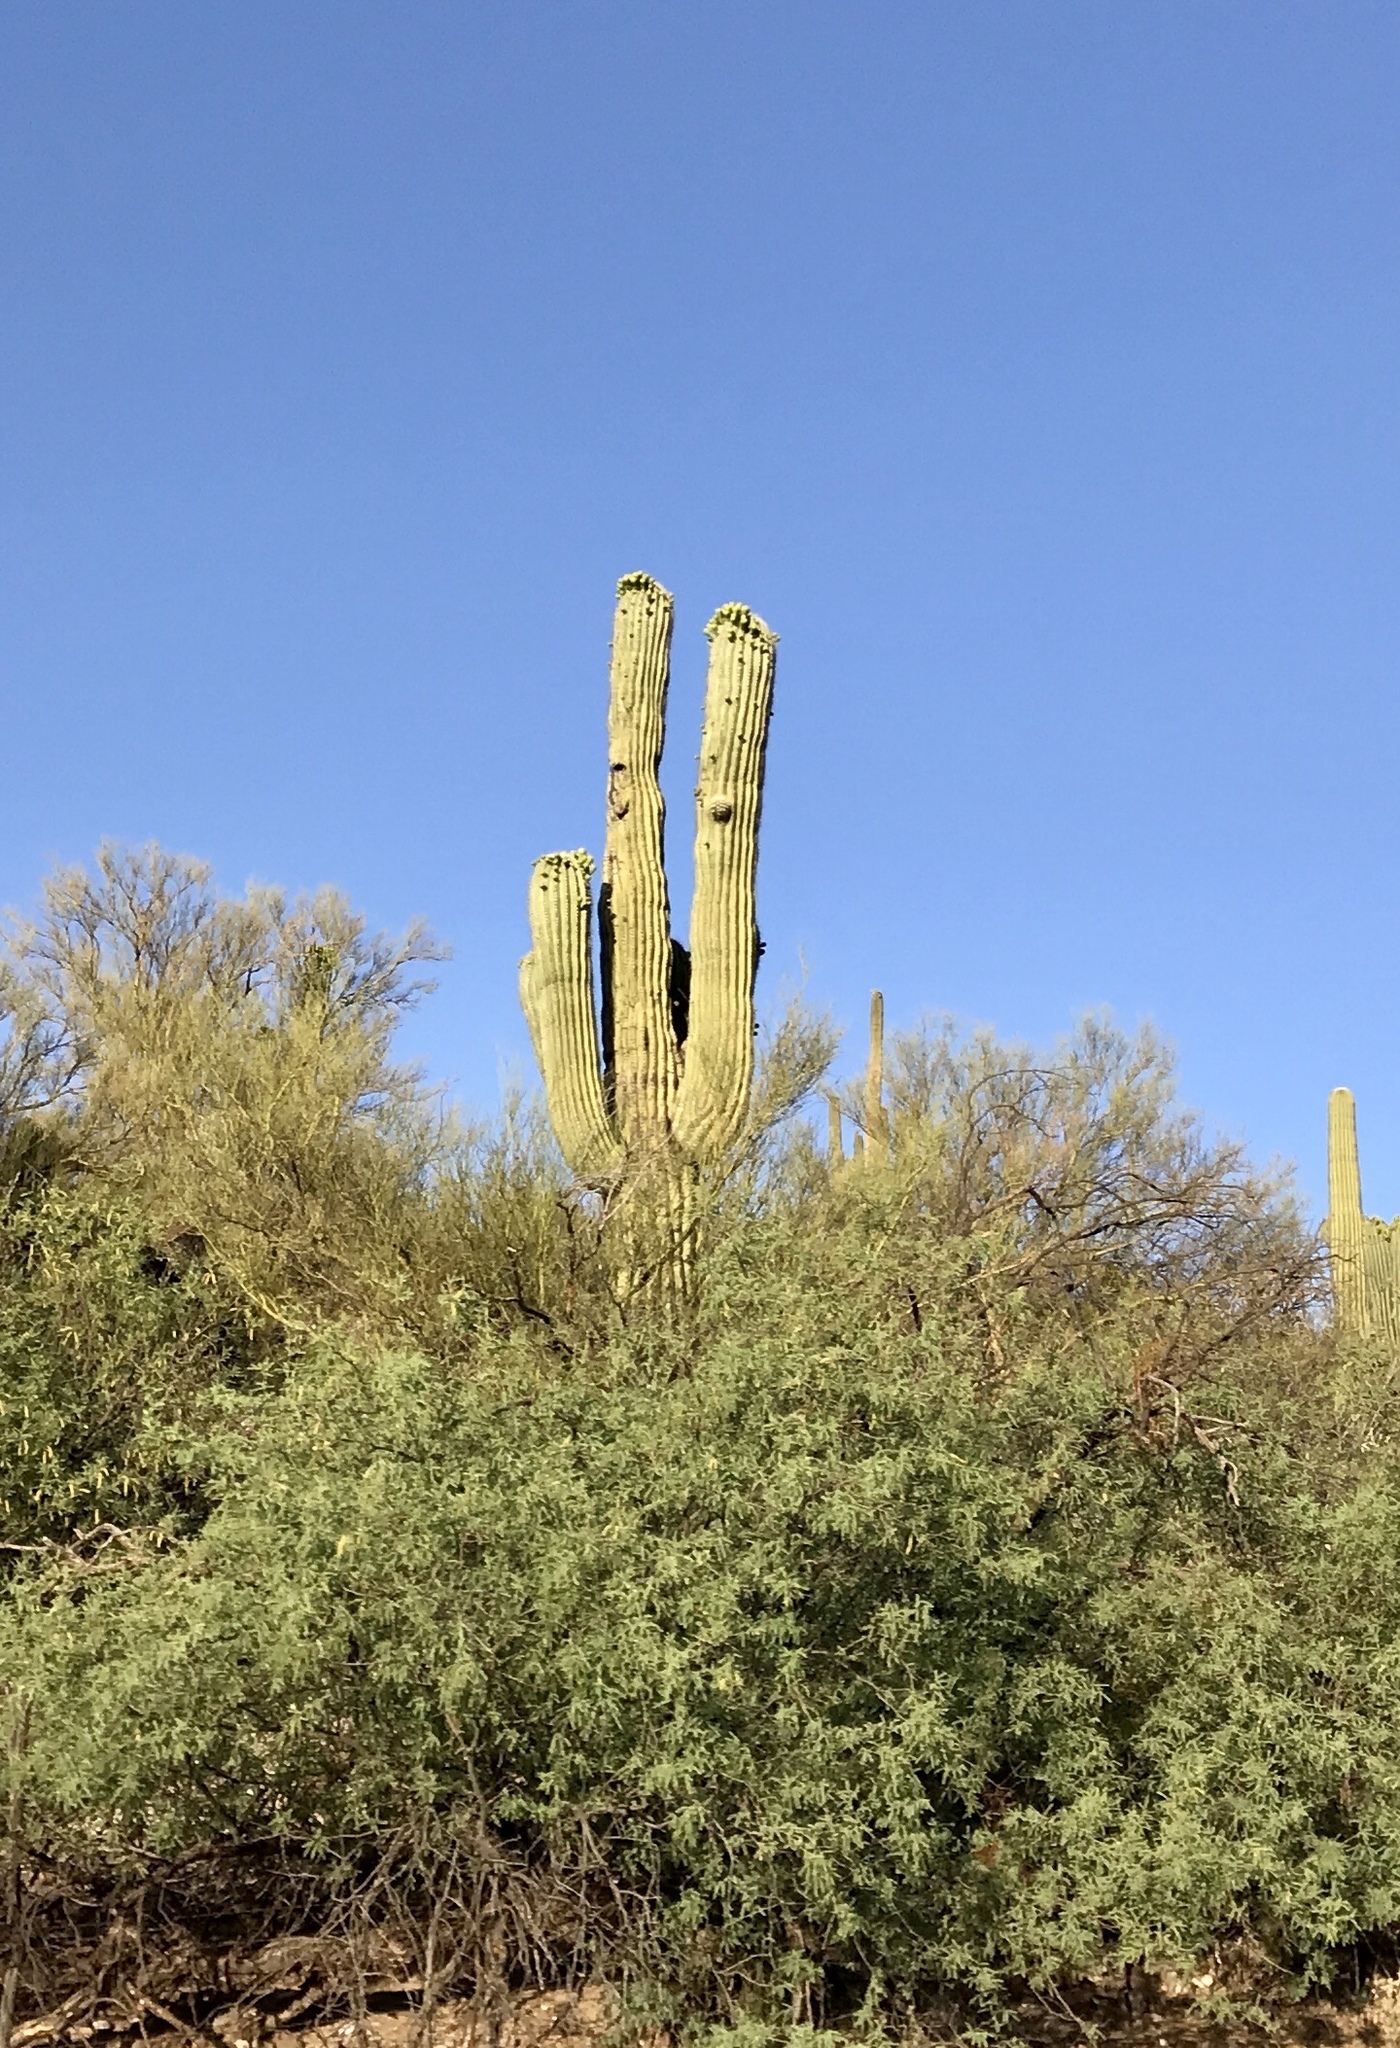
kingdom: Plantae
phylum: Tracheophyta
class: Magnoliopsida
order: Caryophyllales
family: Cactaceae
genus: Carnegiea
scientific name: Carnegiea gigantea
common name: Saguaro
